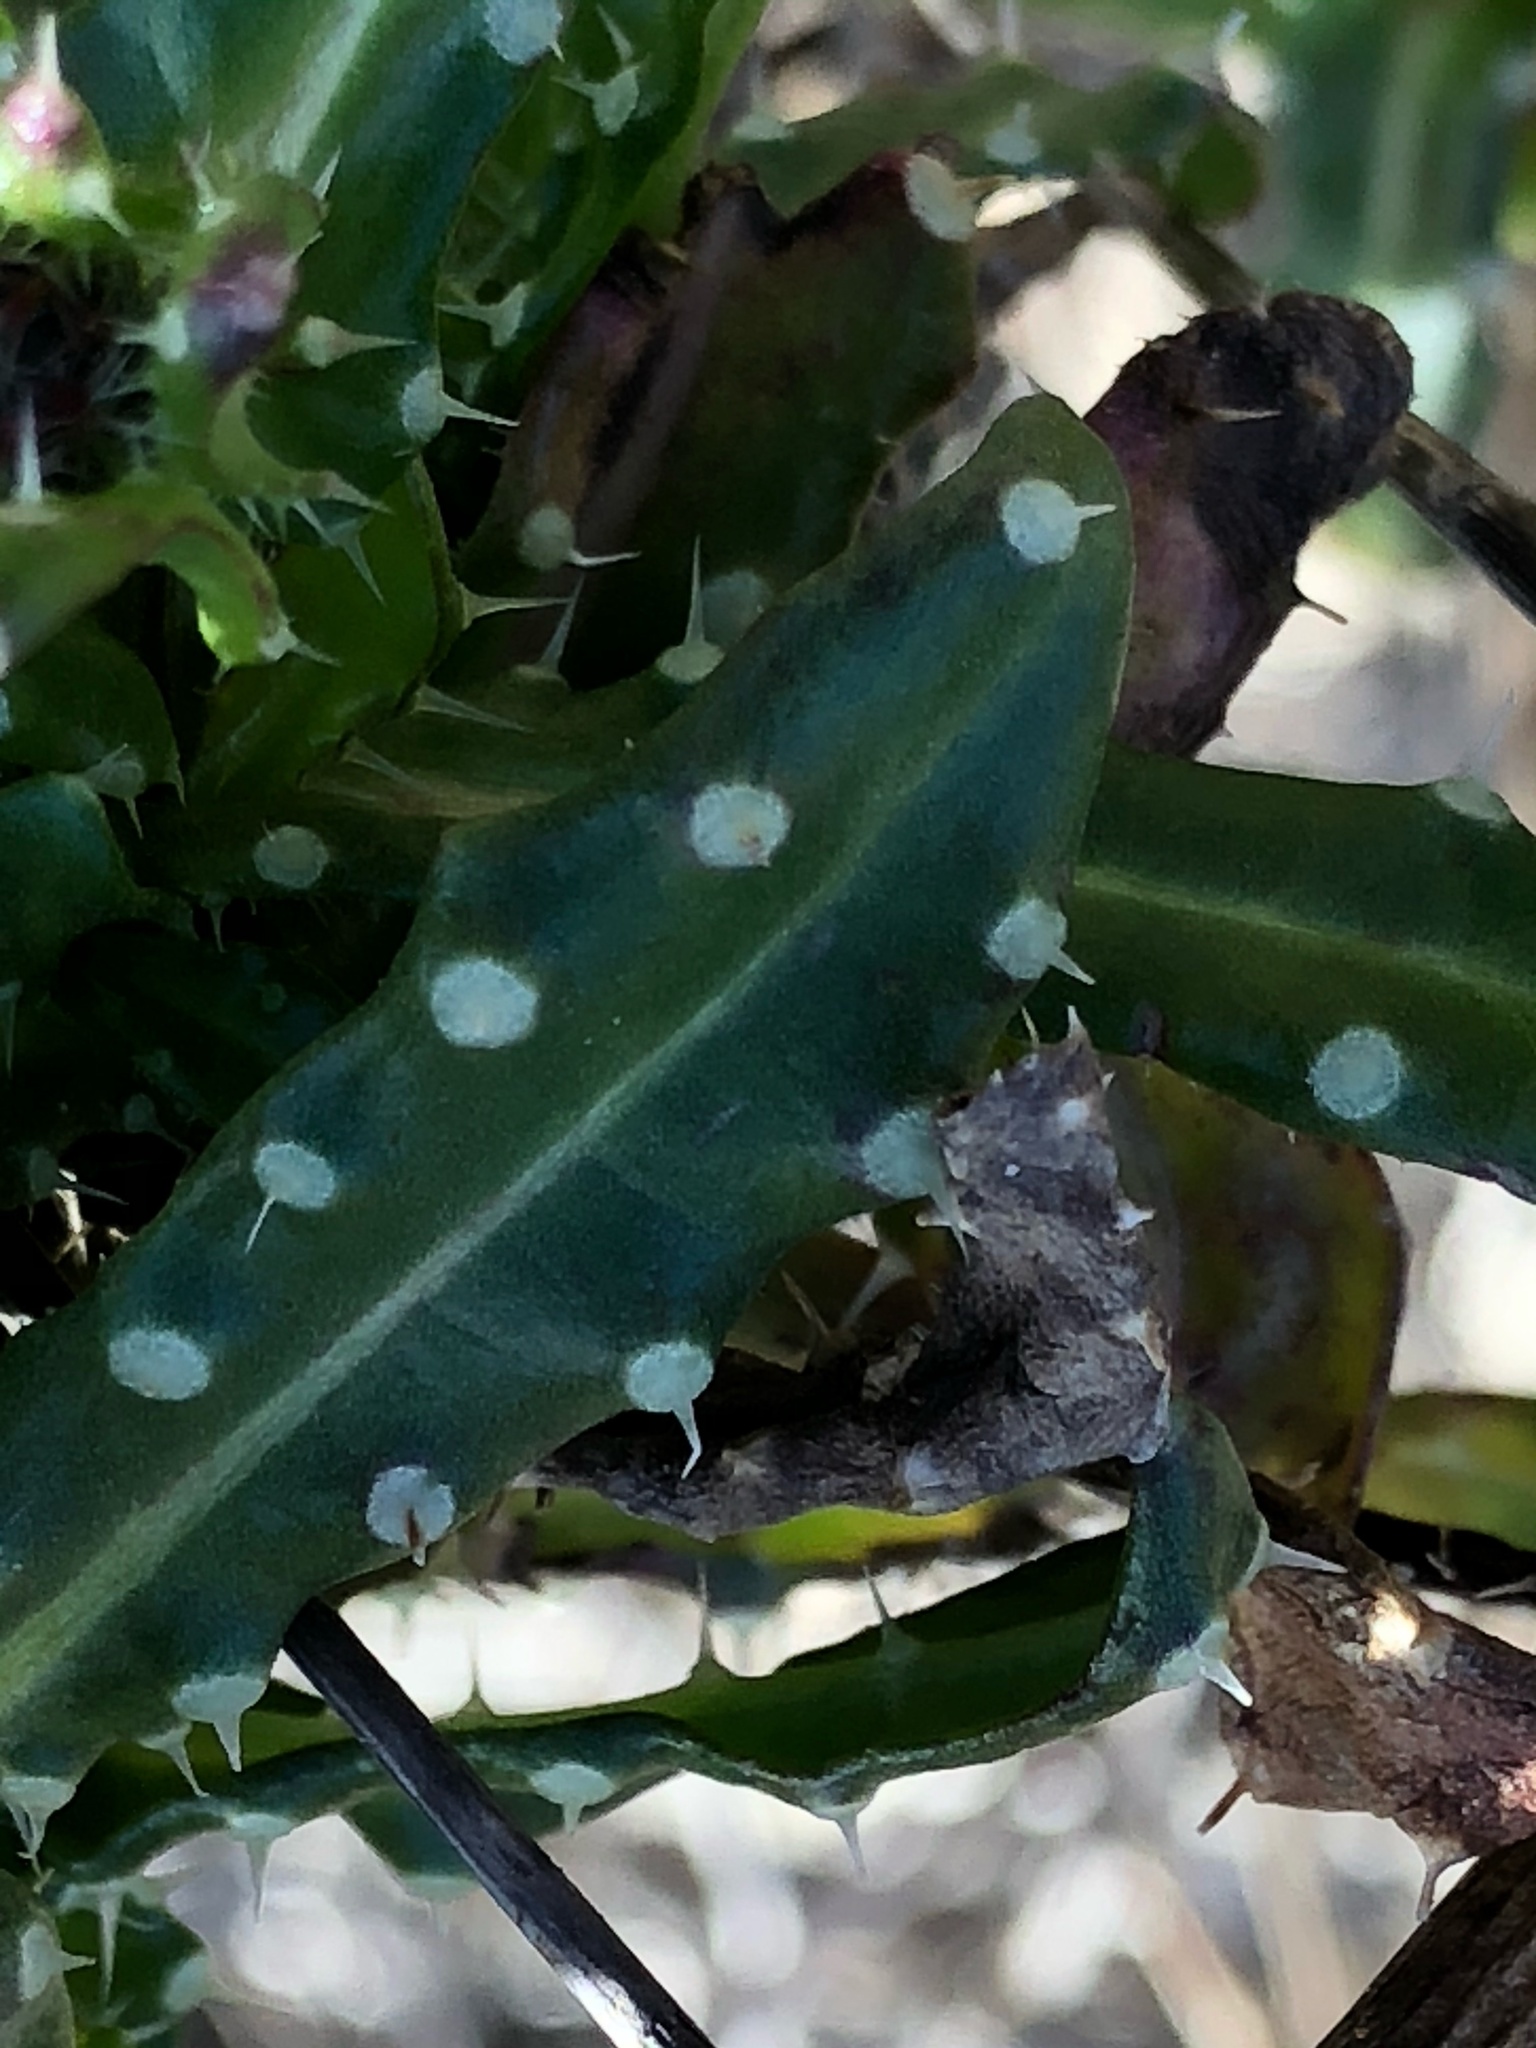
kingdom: Plantae
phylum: Tracheophyta
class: Magnoliopsida
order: Asterales
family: Asteraceae
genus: Helminthotheca
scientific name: Helminthotheca echioides
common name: Ox-tongue
